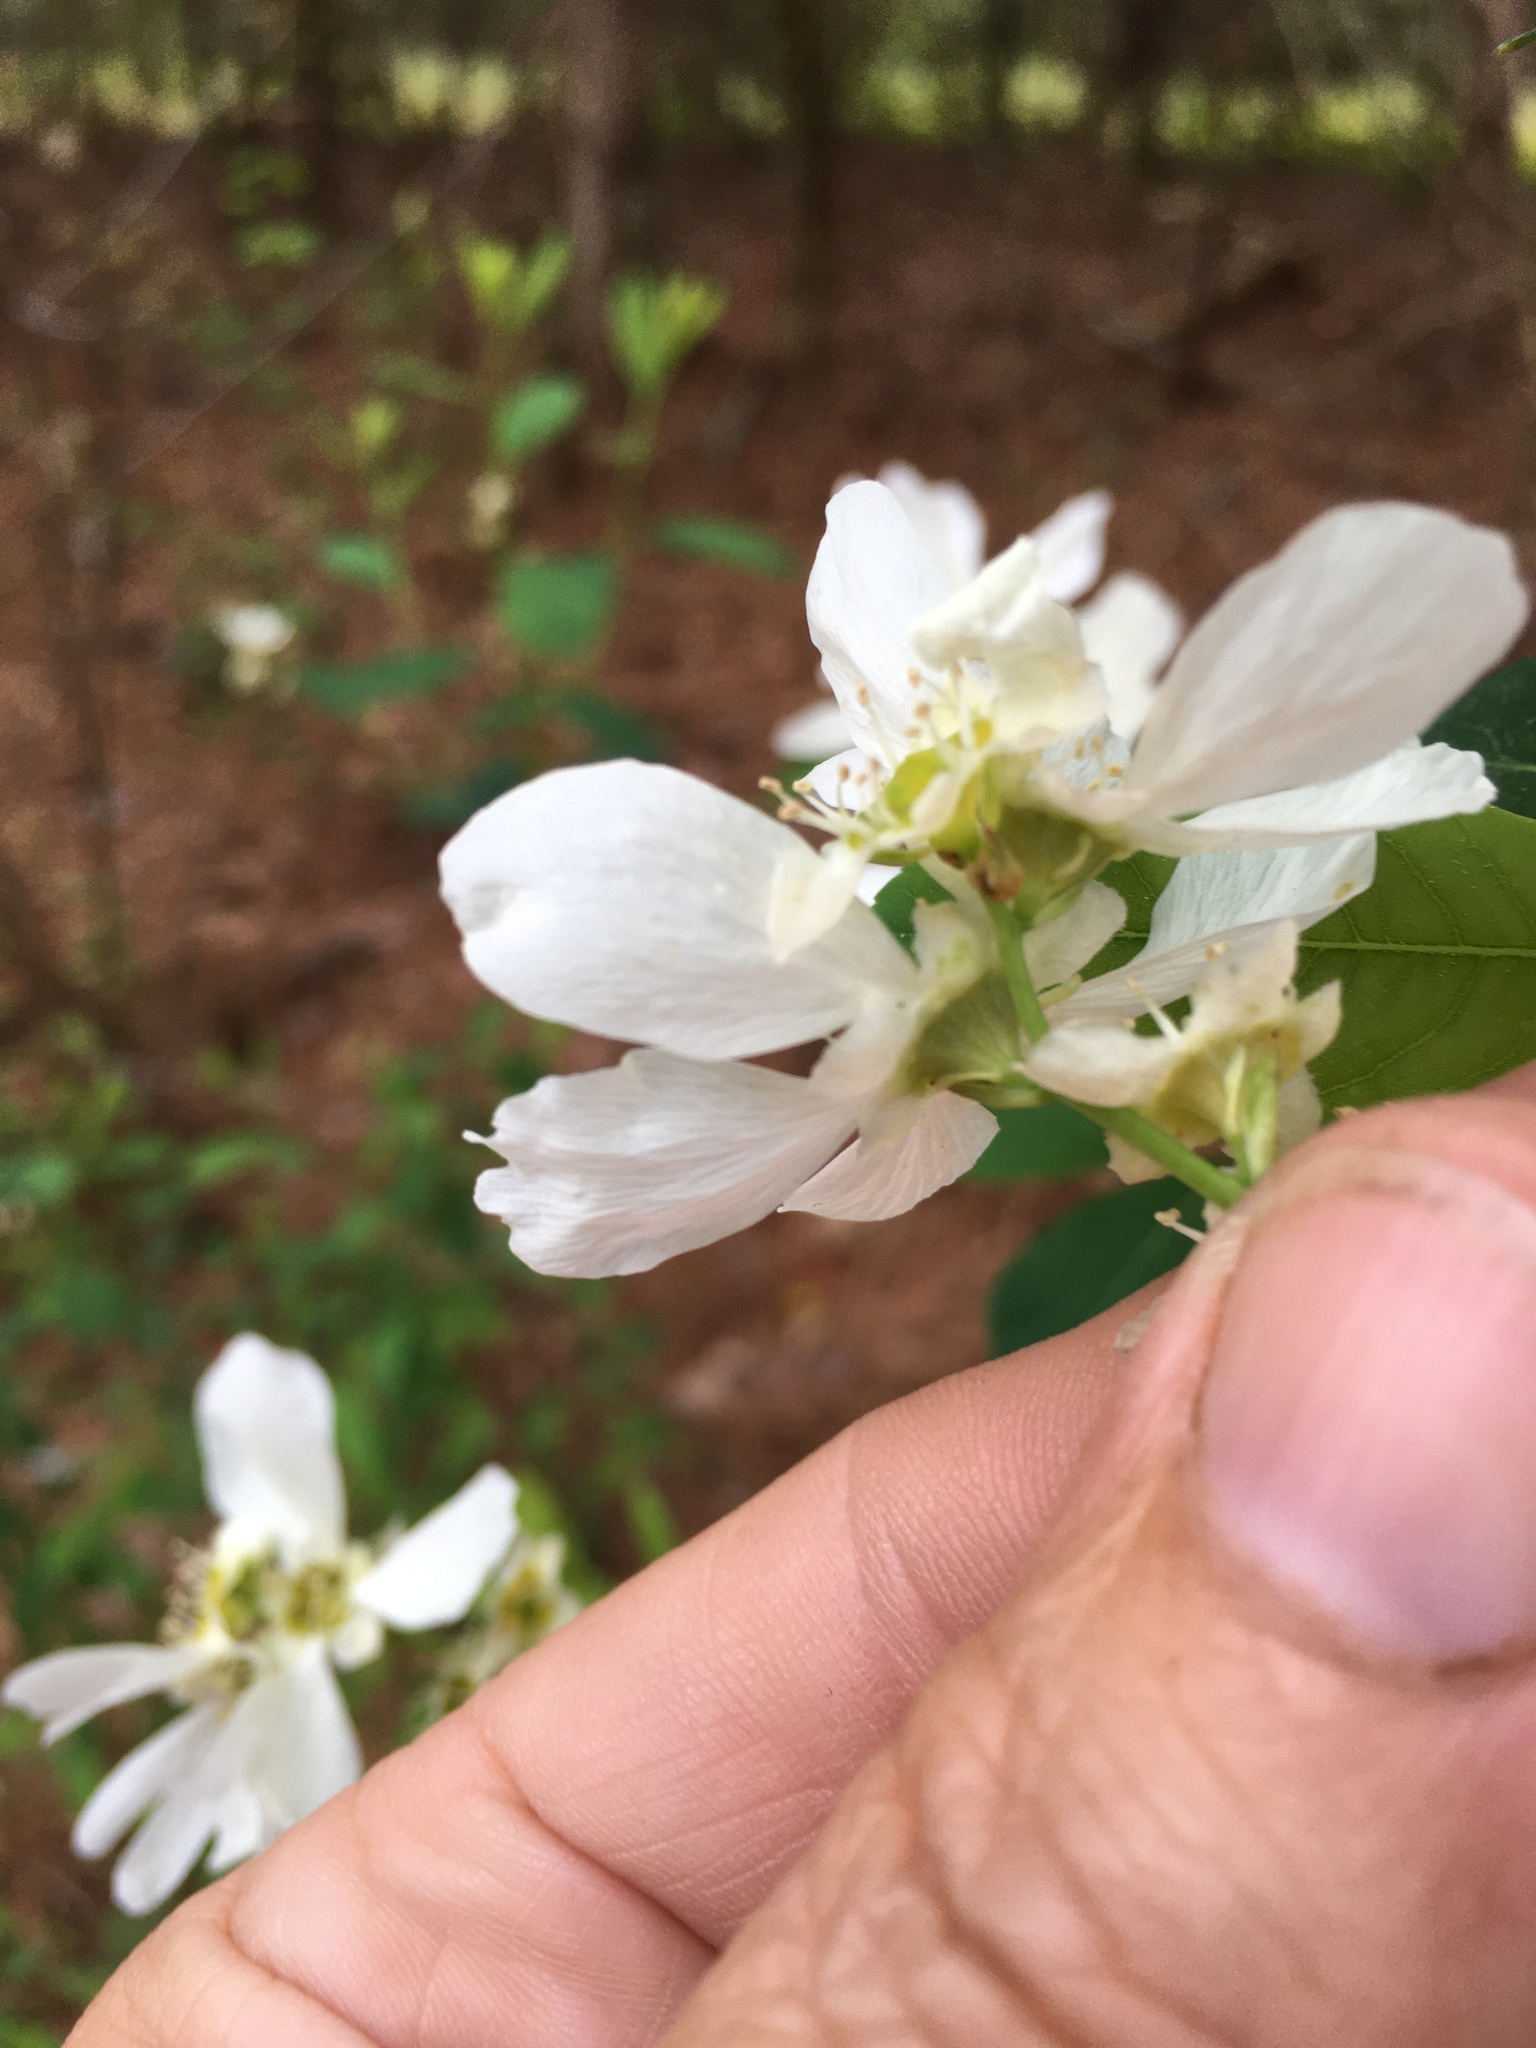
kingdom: Plantae
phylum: Tracheophyta
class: Magnoliopsida
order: Rosales
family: Rosaceae
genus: Exochorda
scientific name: Exochorda racemosa
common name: Common pearlbrush
